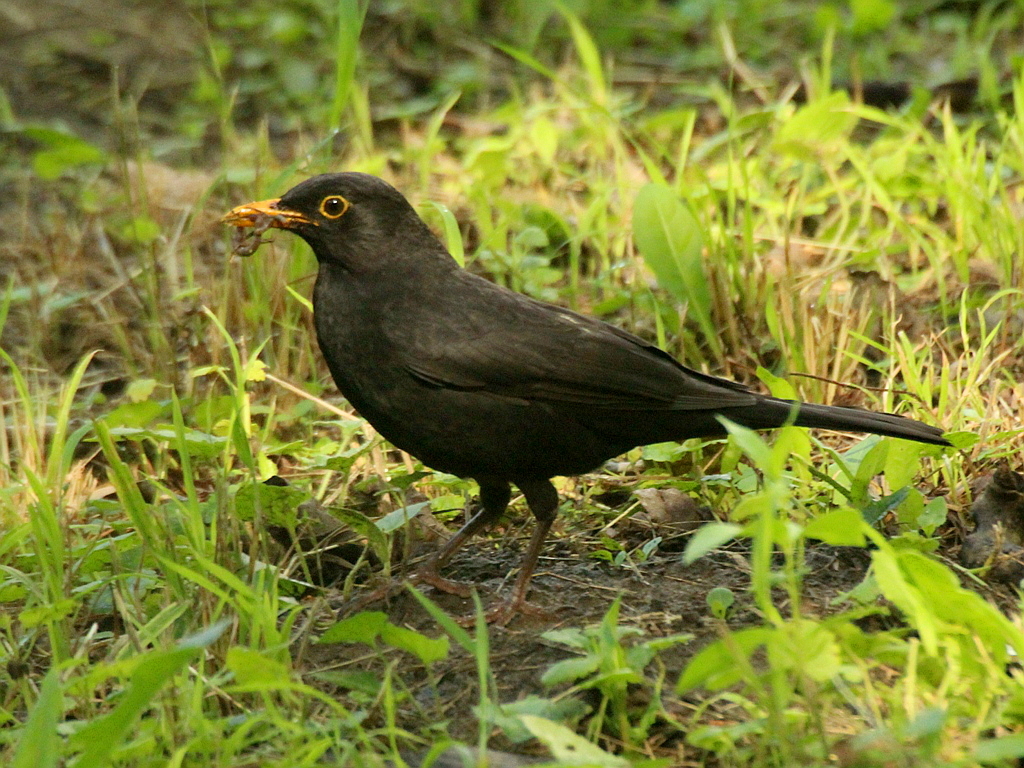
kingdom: Animalia
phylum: Chordata
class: Aves
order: Passeriformes
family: Turdidae
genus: Turdus
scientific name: Turdus merula
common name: Common blackbird
